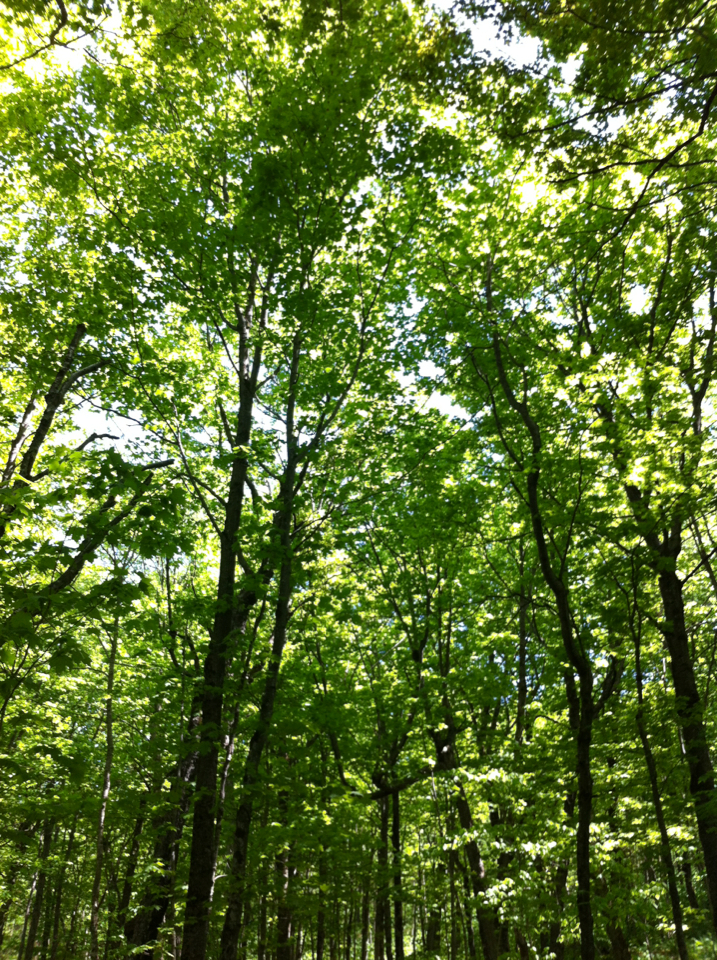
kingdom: Plantae
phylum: Tracheophyta
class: Magnoliopsida
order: Sapindales
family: Sapindaceae
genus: Acer
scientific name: Acer saccharum
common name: Sugar maple
